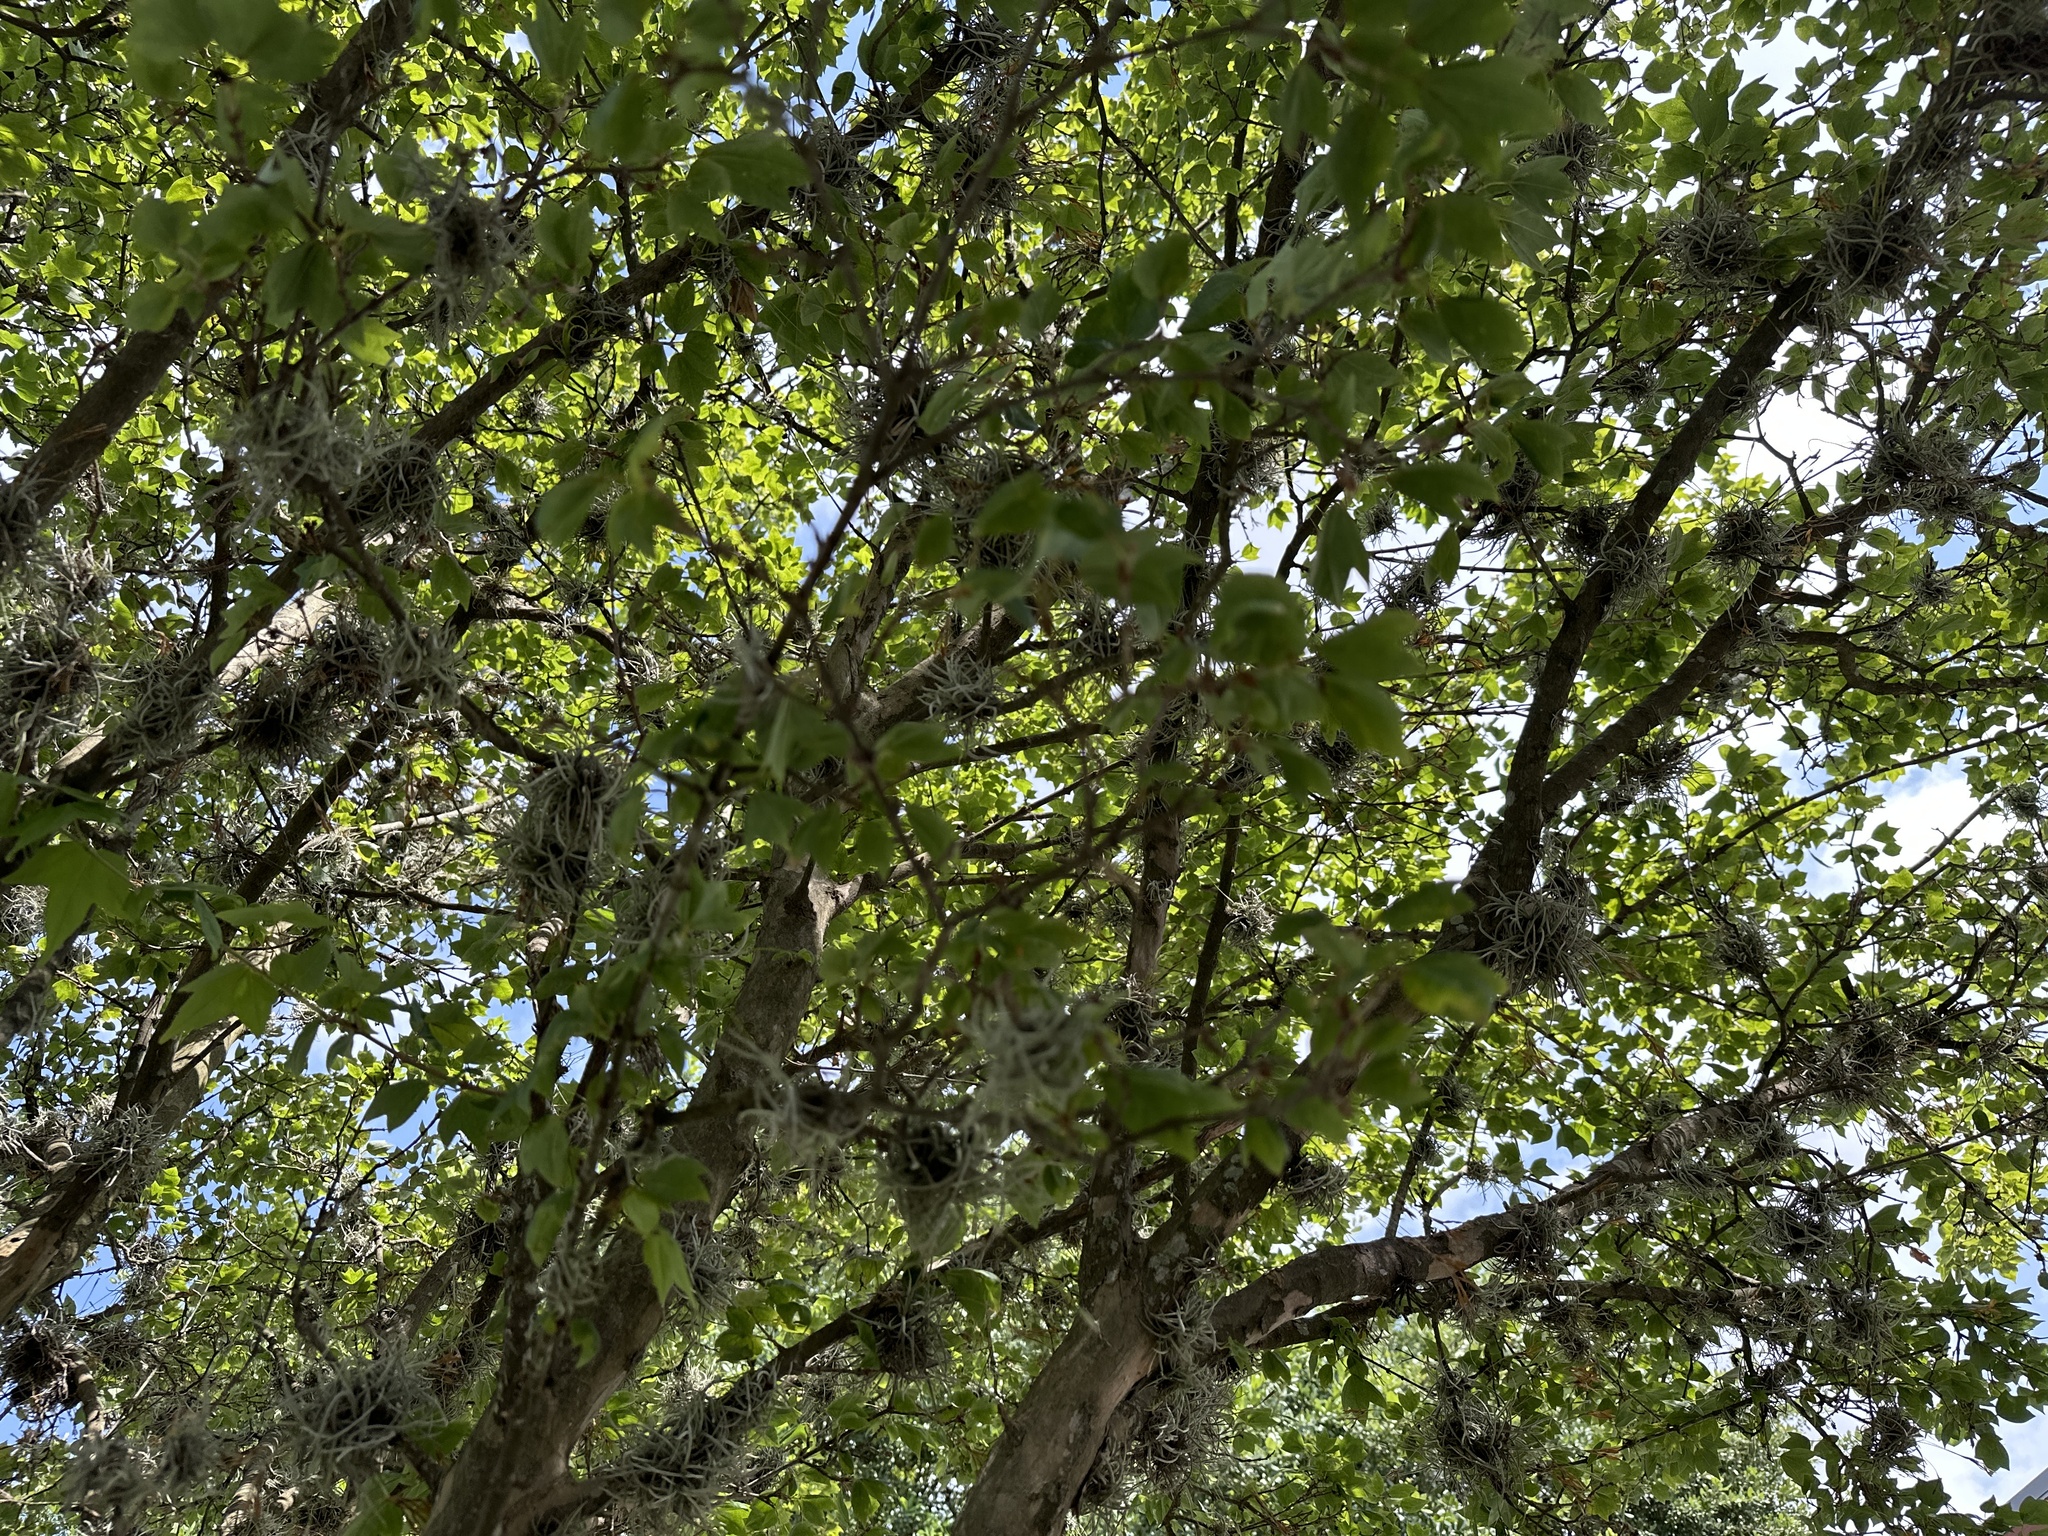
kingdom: Plantae
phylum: Tracheophyta
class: Liliopsida
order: Poales
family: Bromeliaceae
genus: Tillandsia
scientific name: Tillandsia recurvata
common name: Small ballmoss
